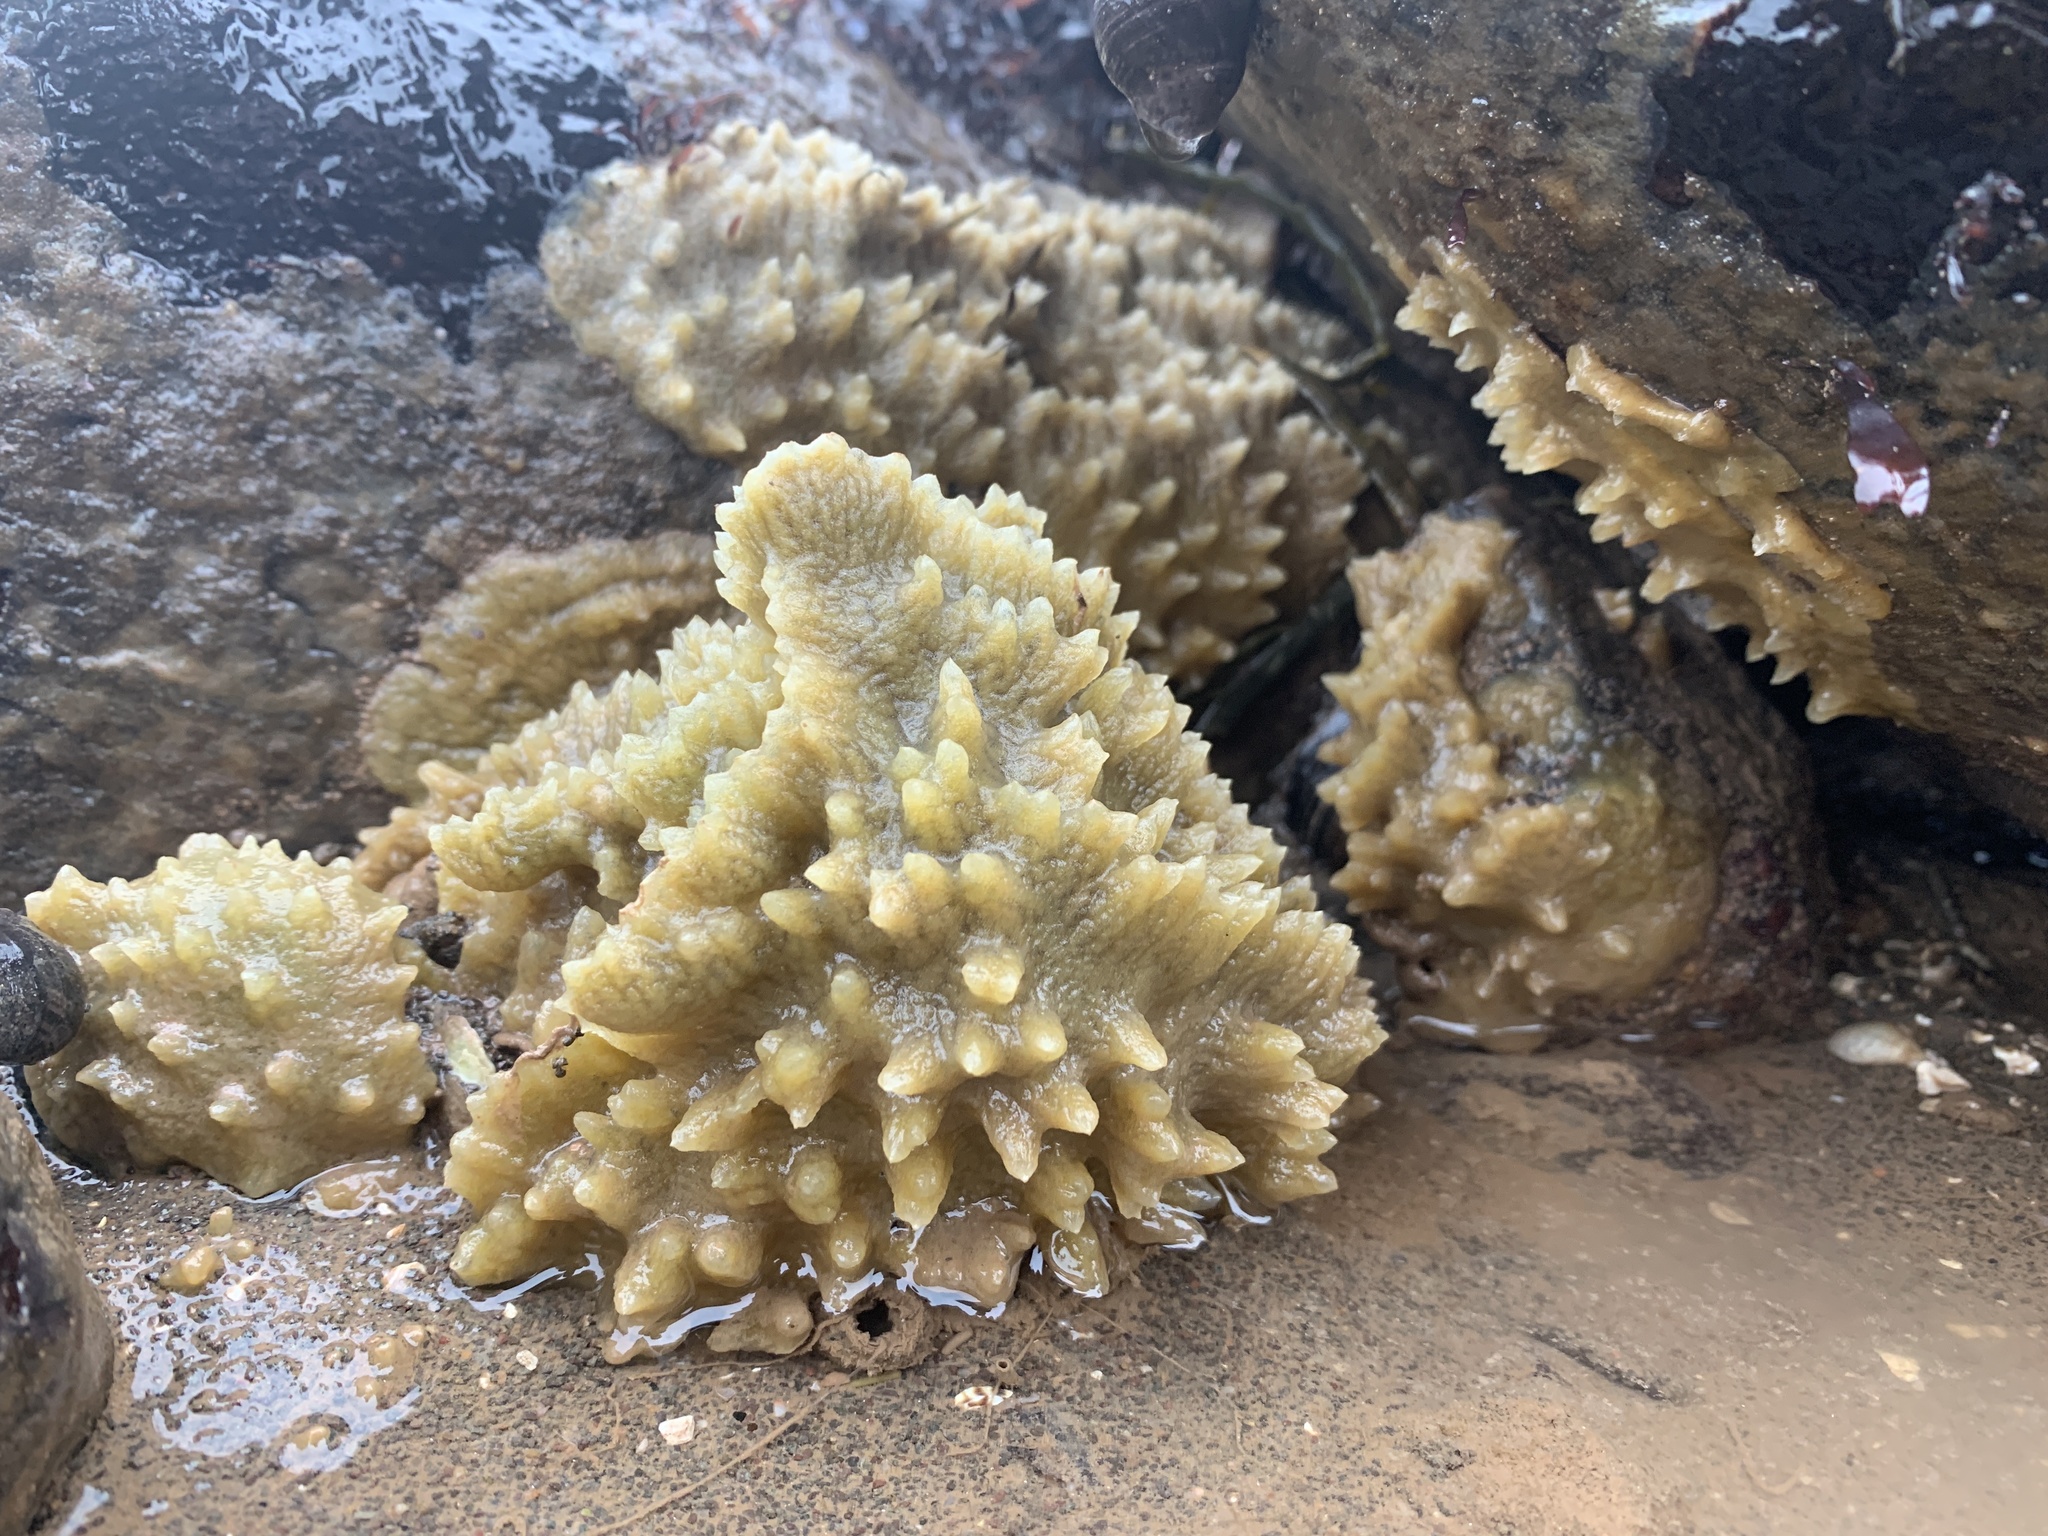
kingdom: Animalia
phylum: Porifera
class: Demospongiae
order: Suberitida
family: Halichondriidae
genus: Halichondria
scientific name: Halichondria panicea
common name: Breadcrumb sponge
